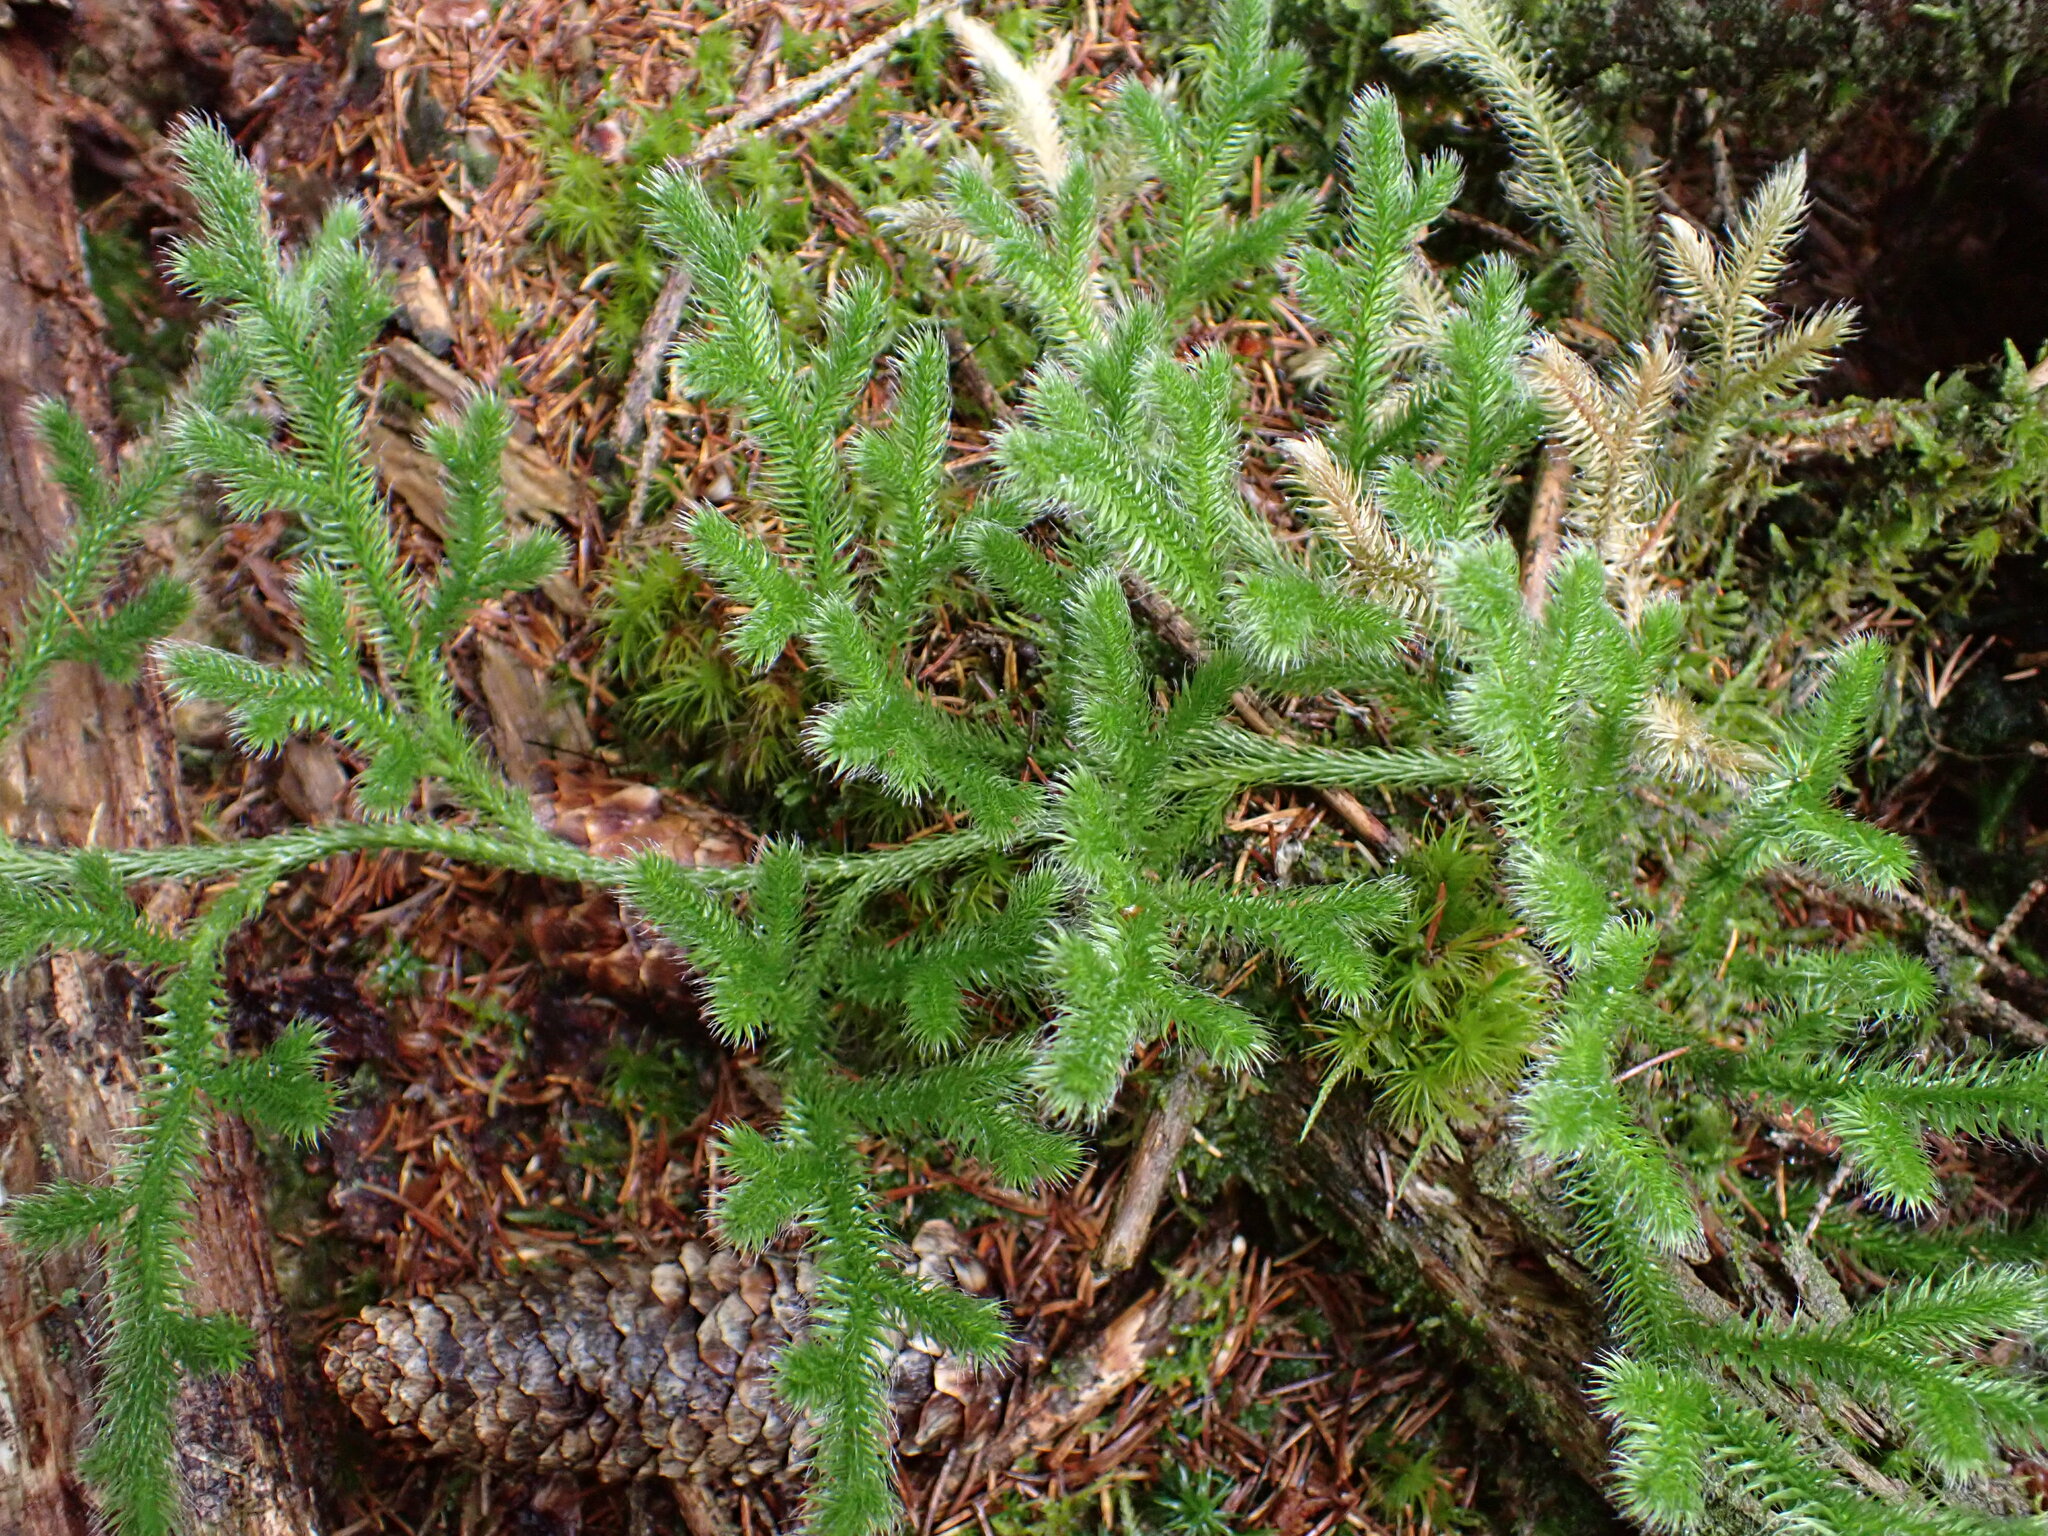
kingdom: Plantae
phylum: Tracheophyta
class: Lycopodiopsida
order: Lycopodiales
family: Lycopodiaceae
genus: Lycopodium
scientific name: Lycopodium clavatum
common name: Stag's-horn clubmoss
